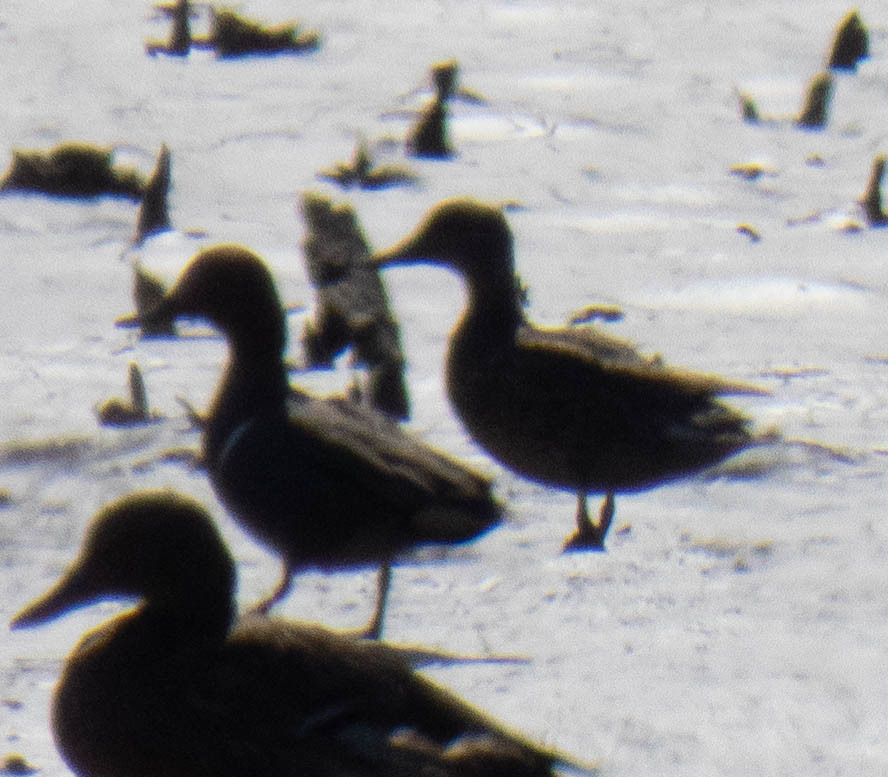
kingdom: Animalia
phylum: Chordata
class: Aves
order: Anseriformes
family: Anatidae
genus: Anas
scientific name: Anas crecca
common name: Eurasian teal
